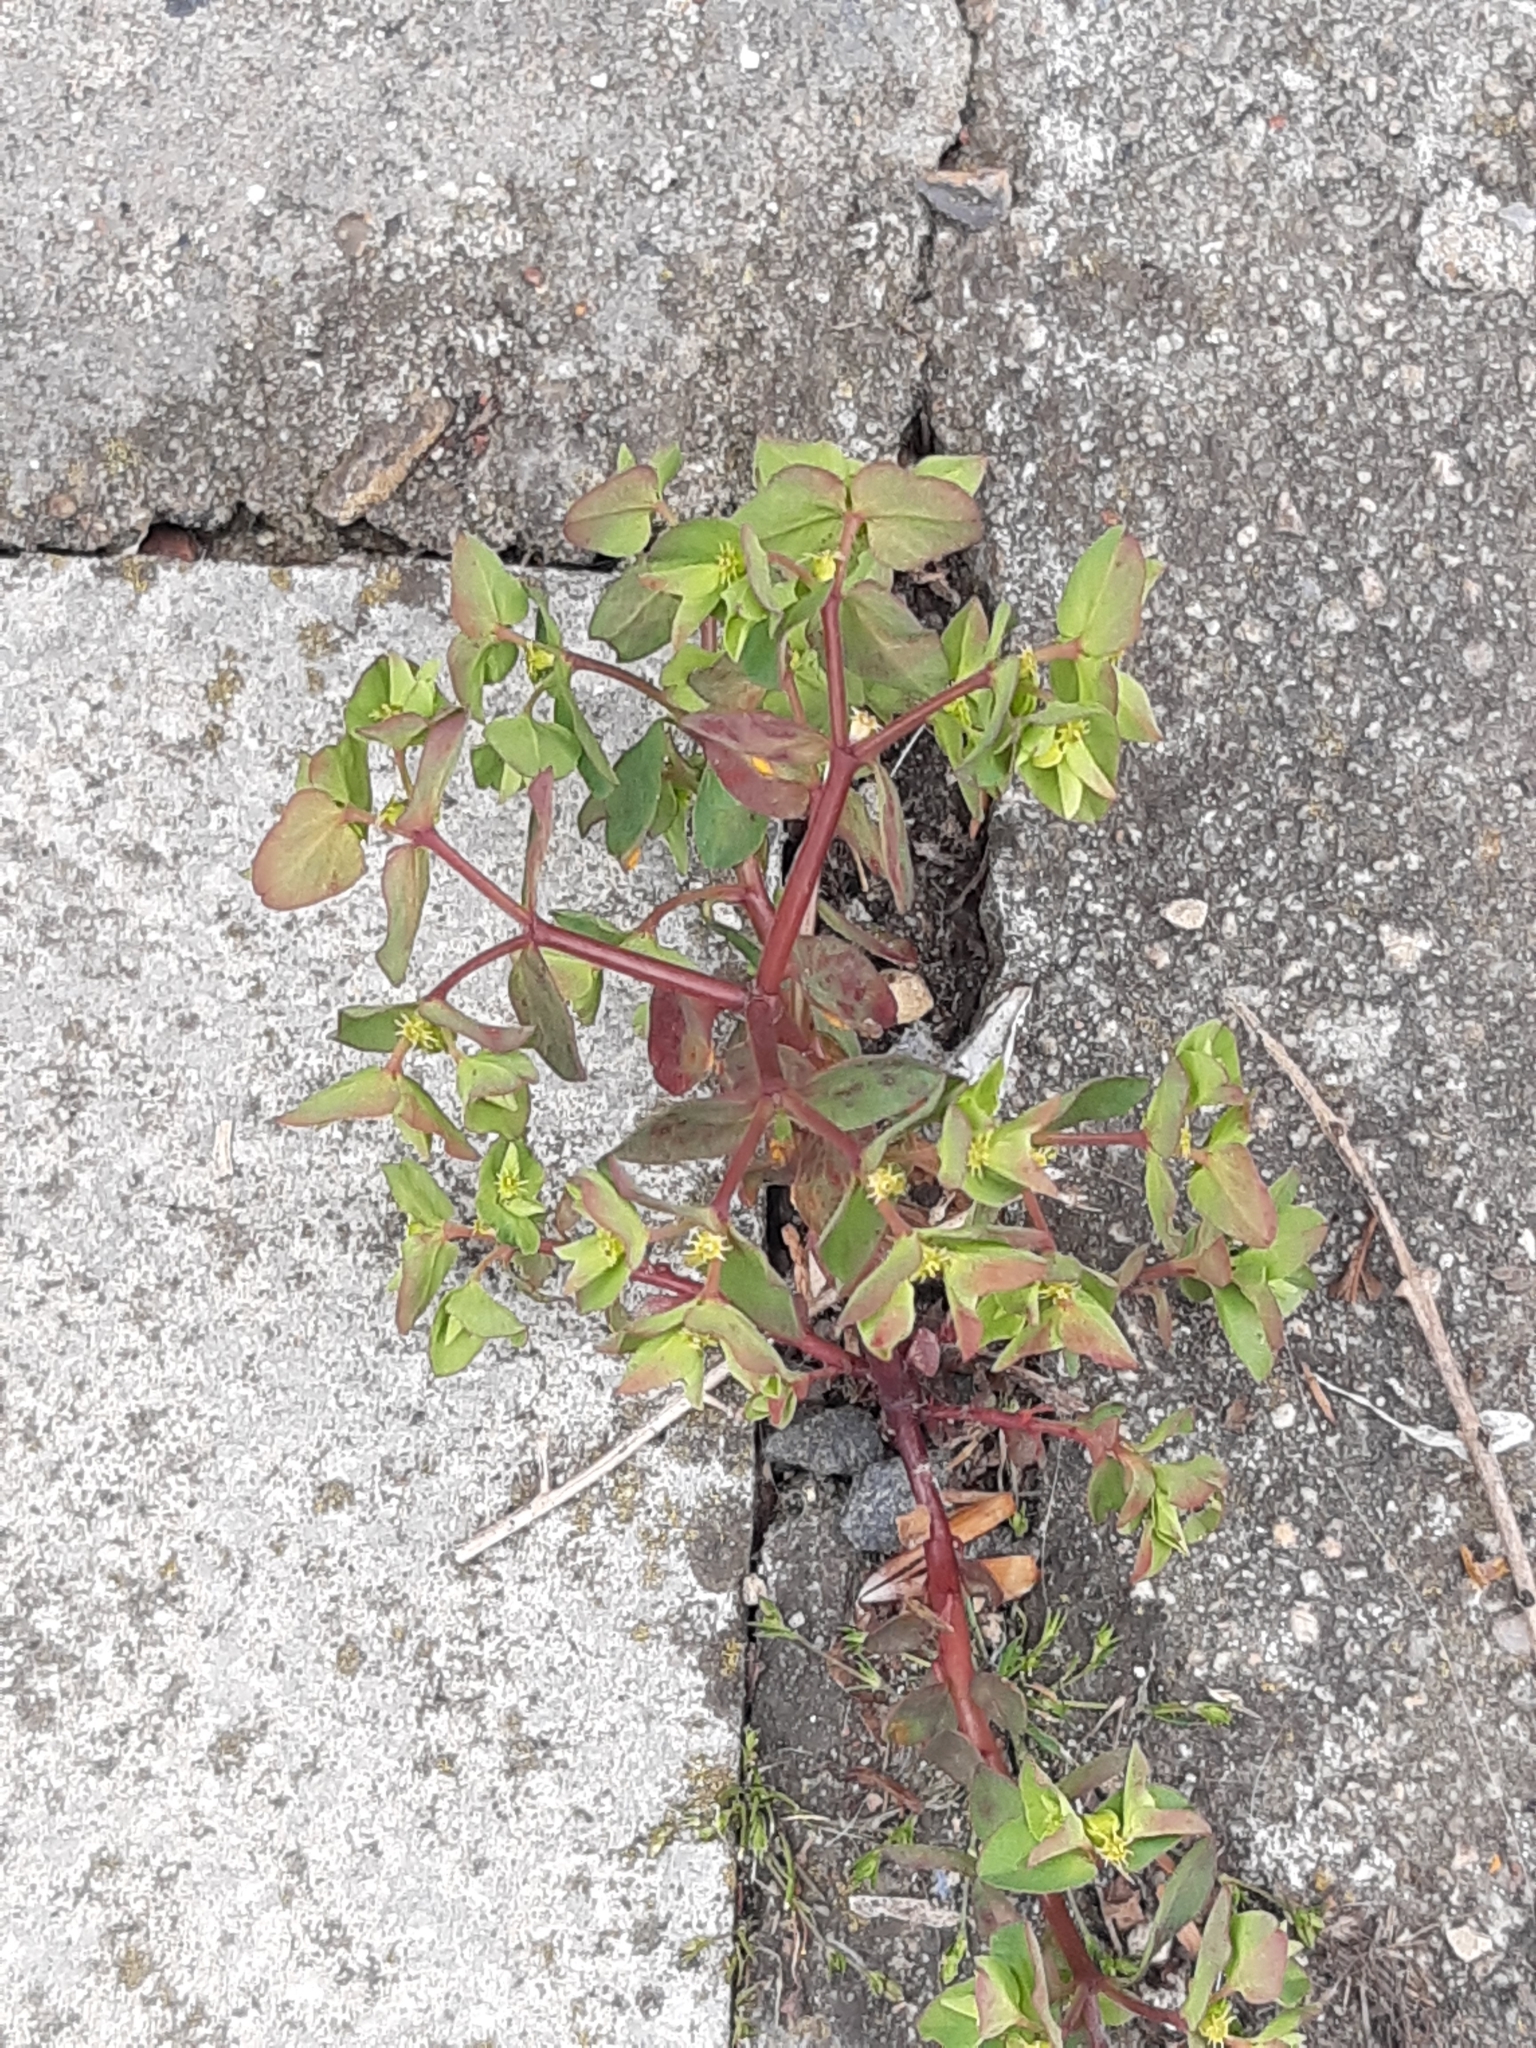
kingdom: Plantae
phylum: Tracheophyta
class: Magnoliopsida
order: Malpighiales
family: Euphorbiaceae
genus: Euphorbia
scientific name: Euphorbia peplus
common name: Petty spurge
